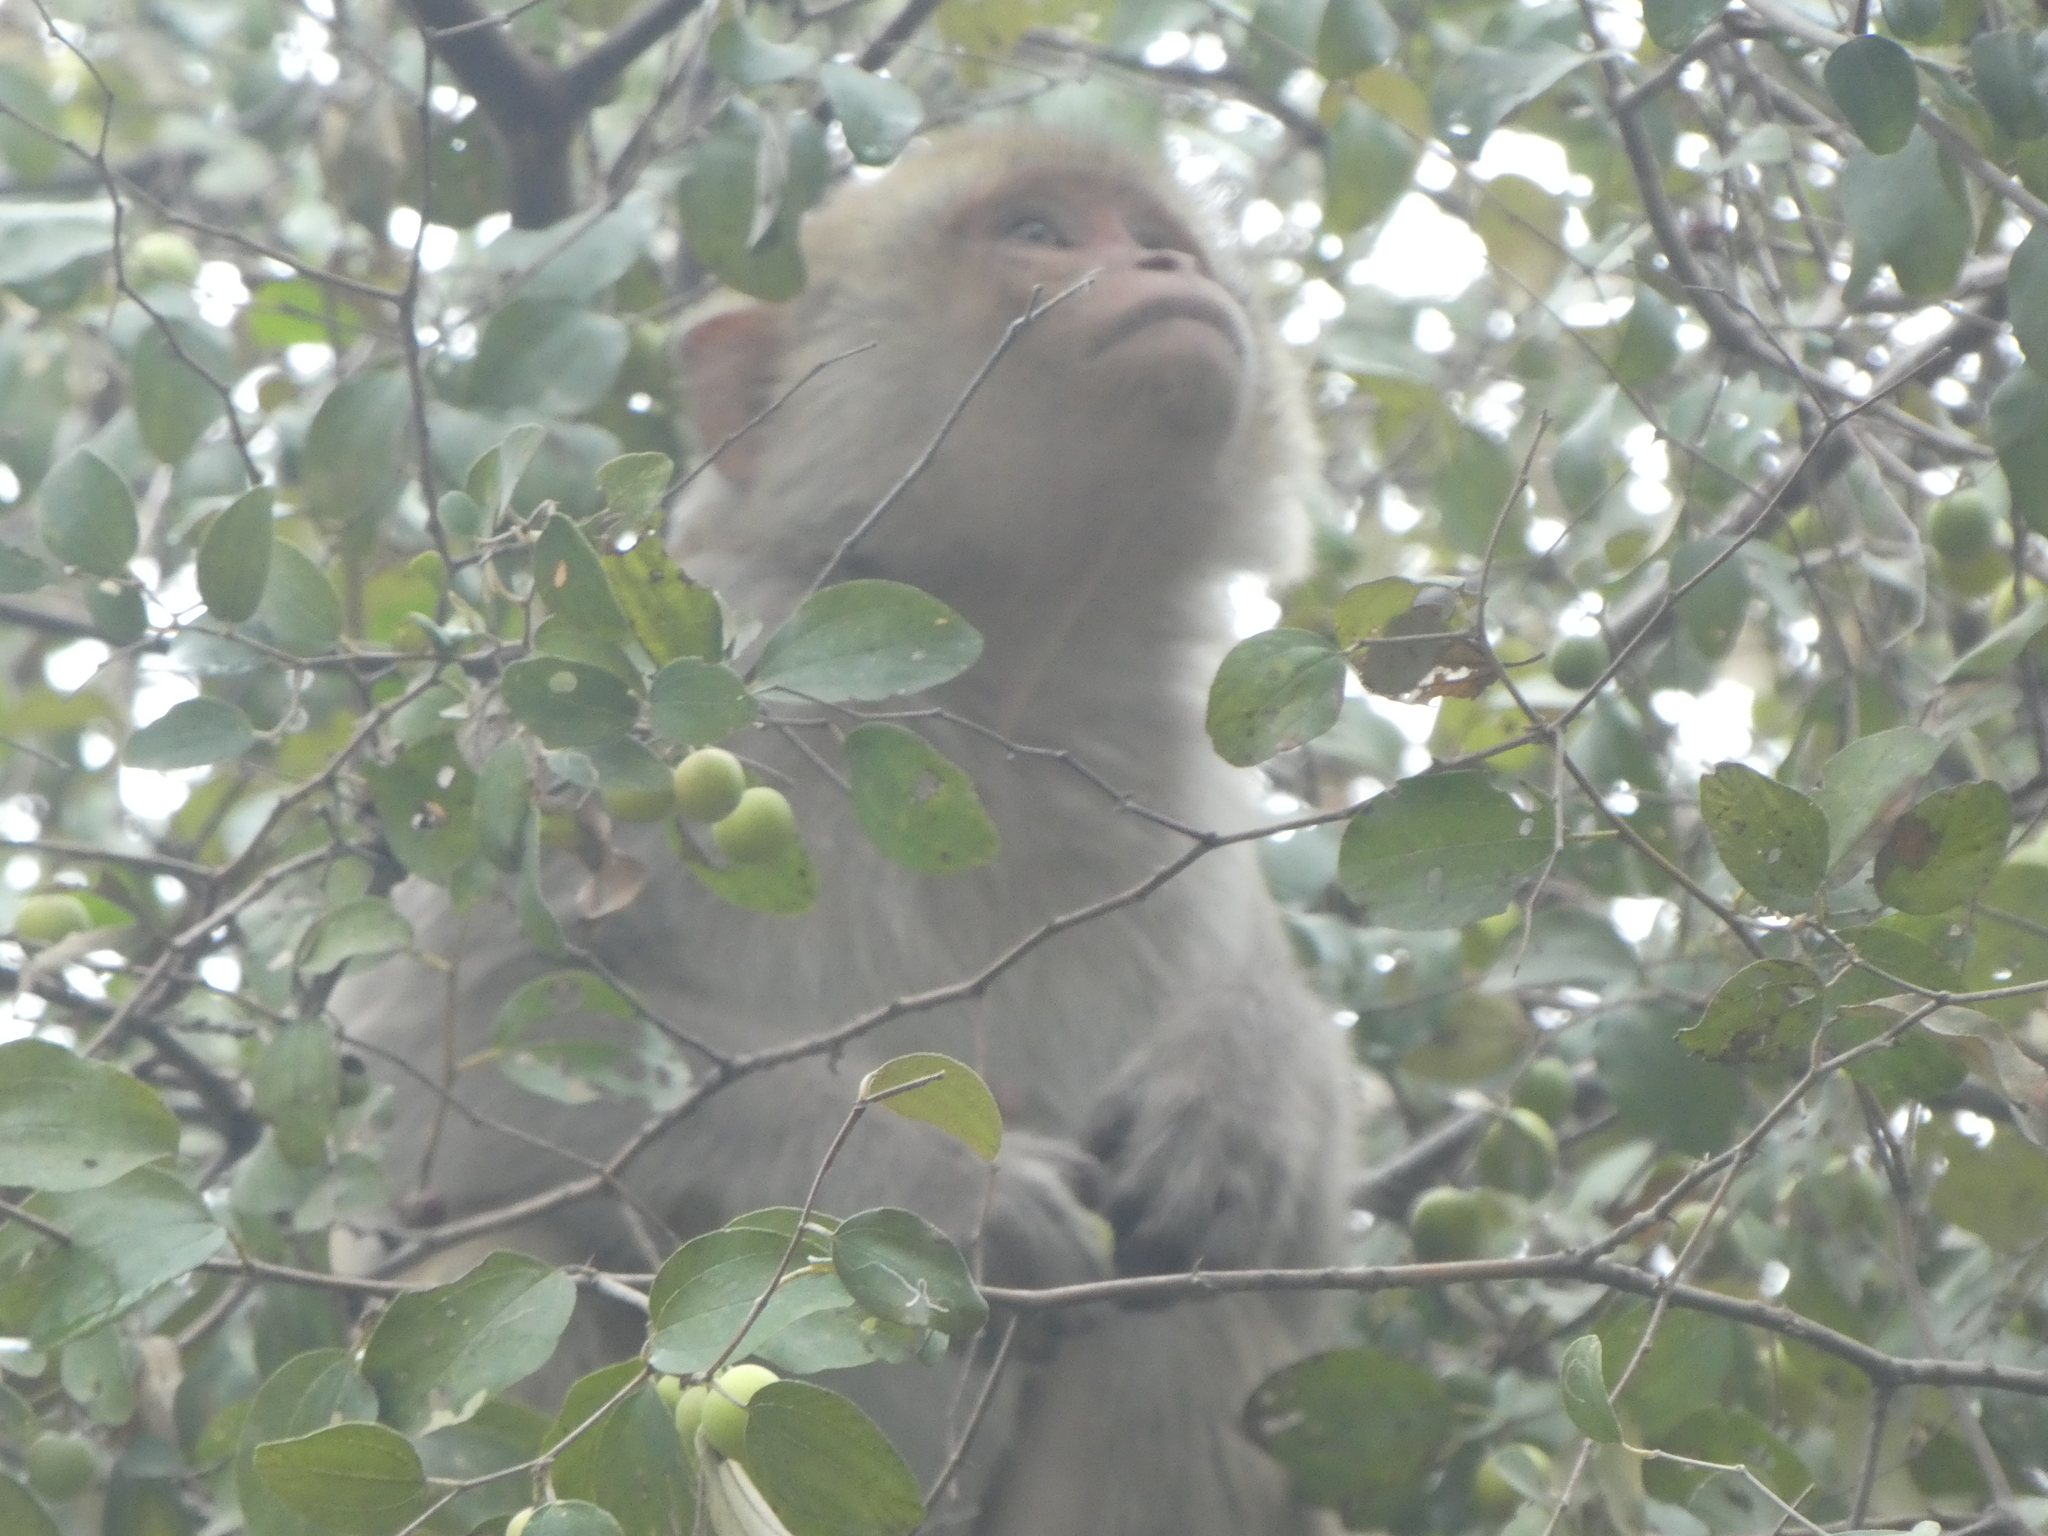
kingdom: Animalia
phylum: Chordata
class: Mammalia
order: Primates
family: Cercopithecidae
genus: Macaca
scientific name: Macaca mulatta
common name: Rhesus monkey
